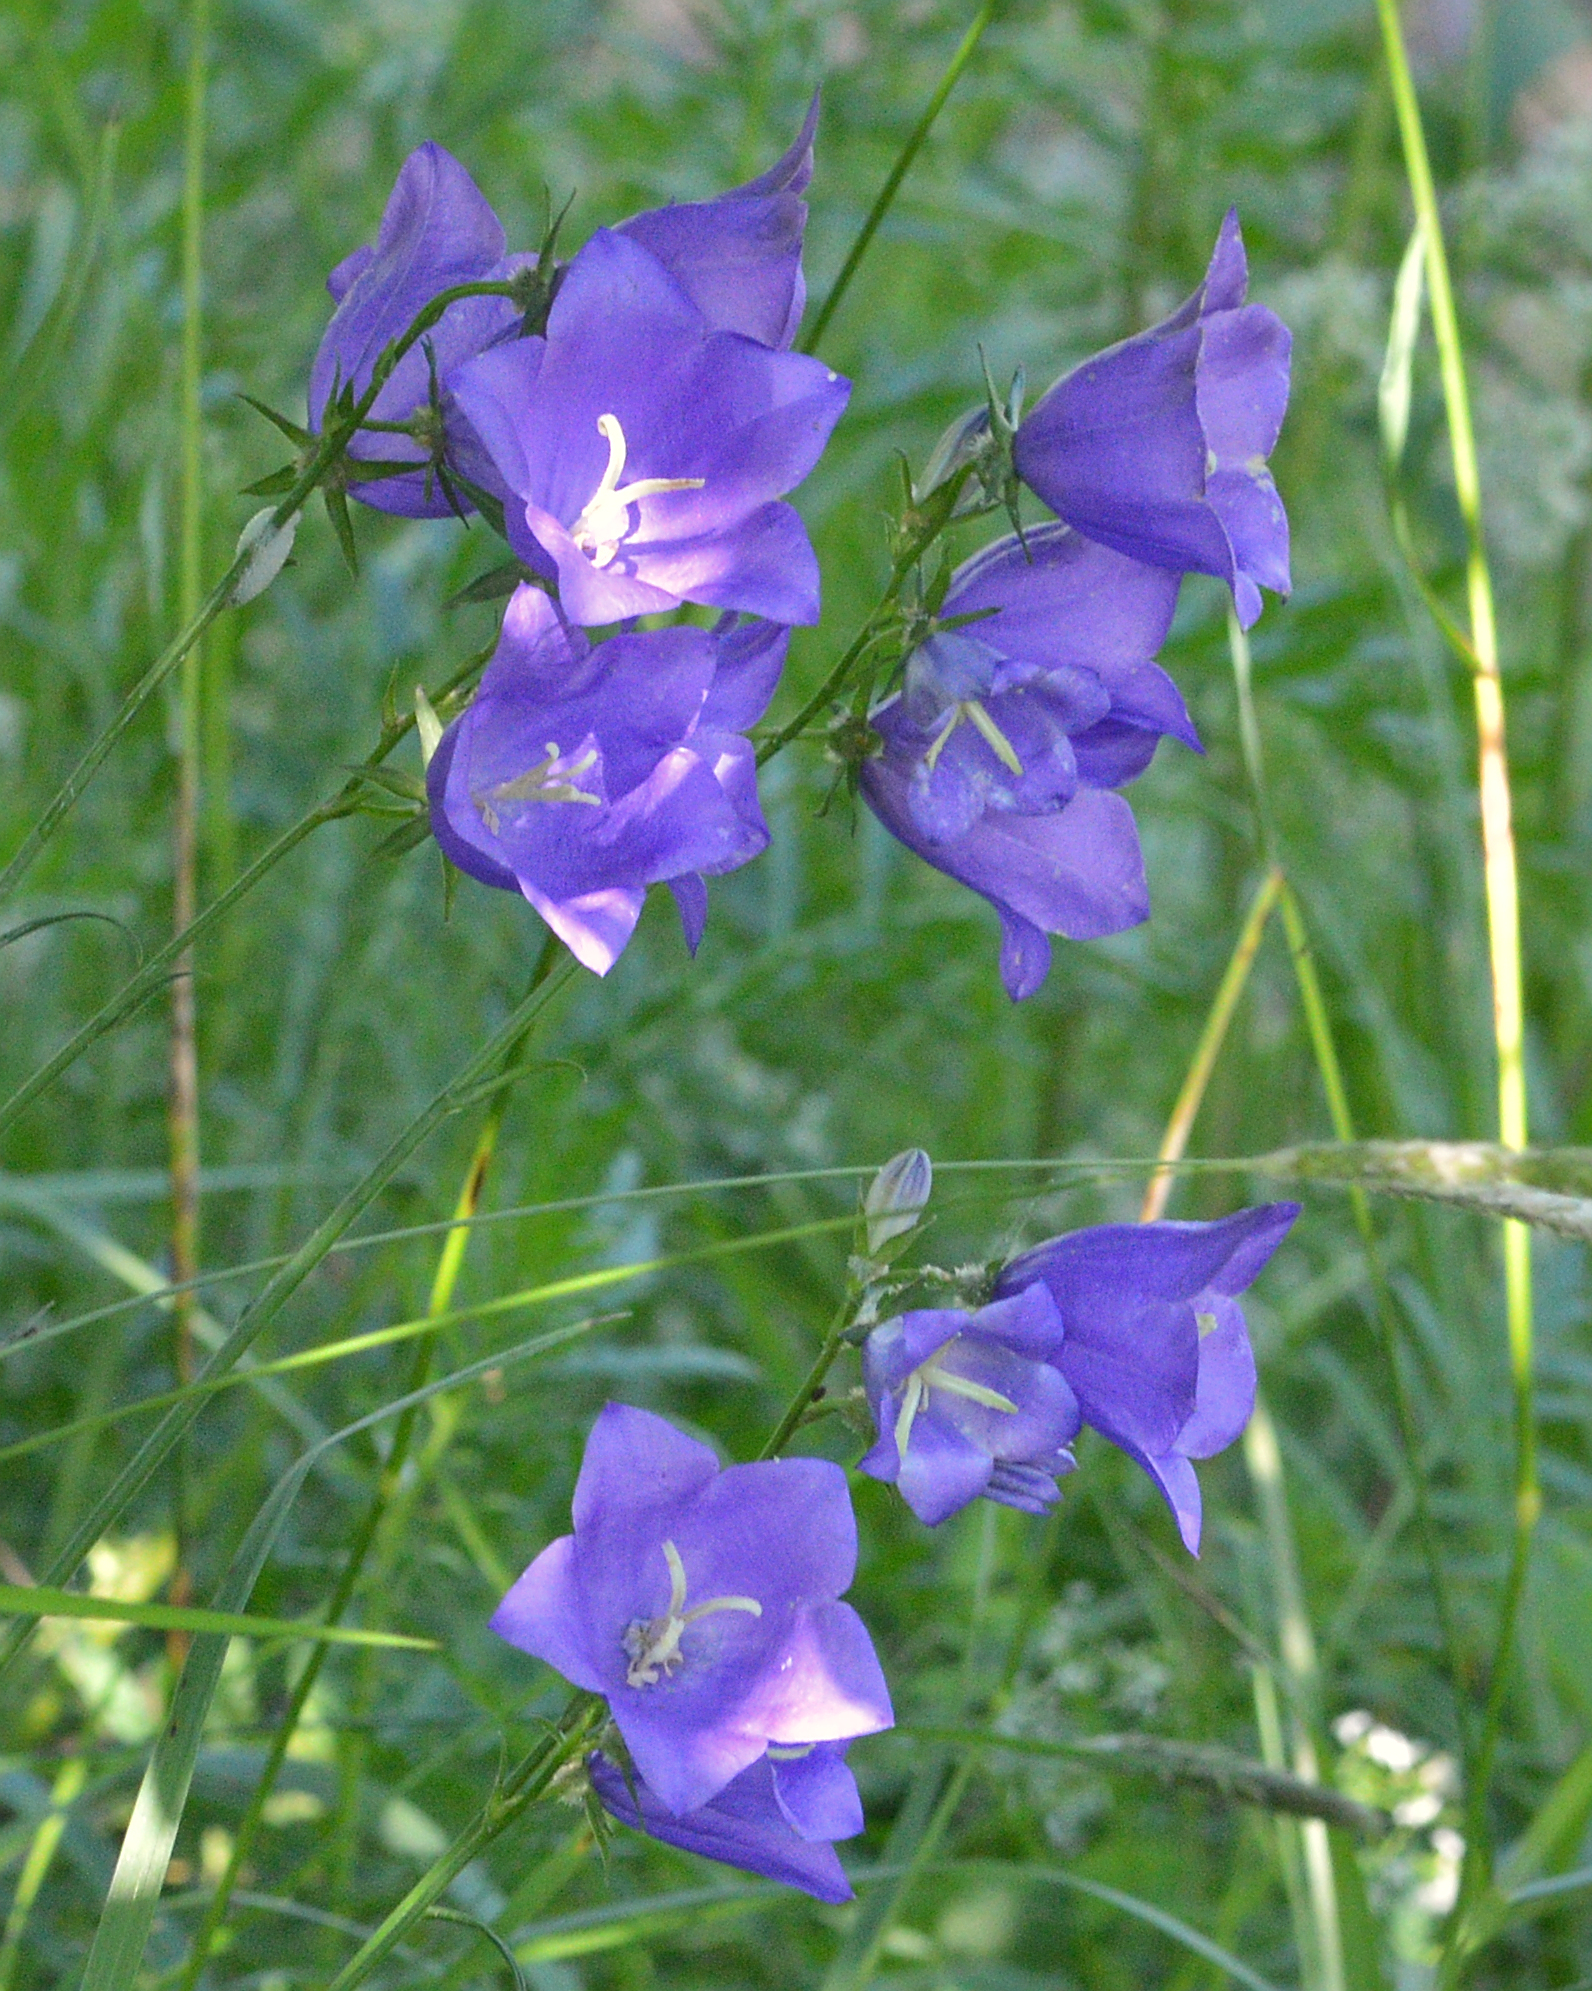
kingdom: Plantae
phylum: Tracheophyta
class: Magnoliopsida
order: Asterales
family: Campanulaceae
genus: Campanula
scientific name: Campanula persicifolia
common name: Peach-leaved bellflower
